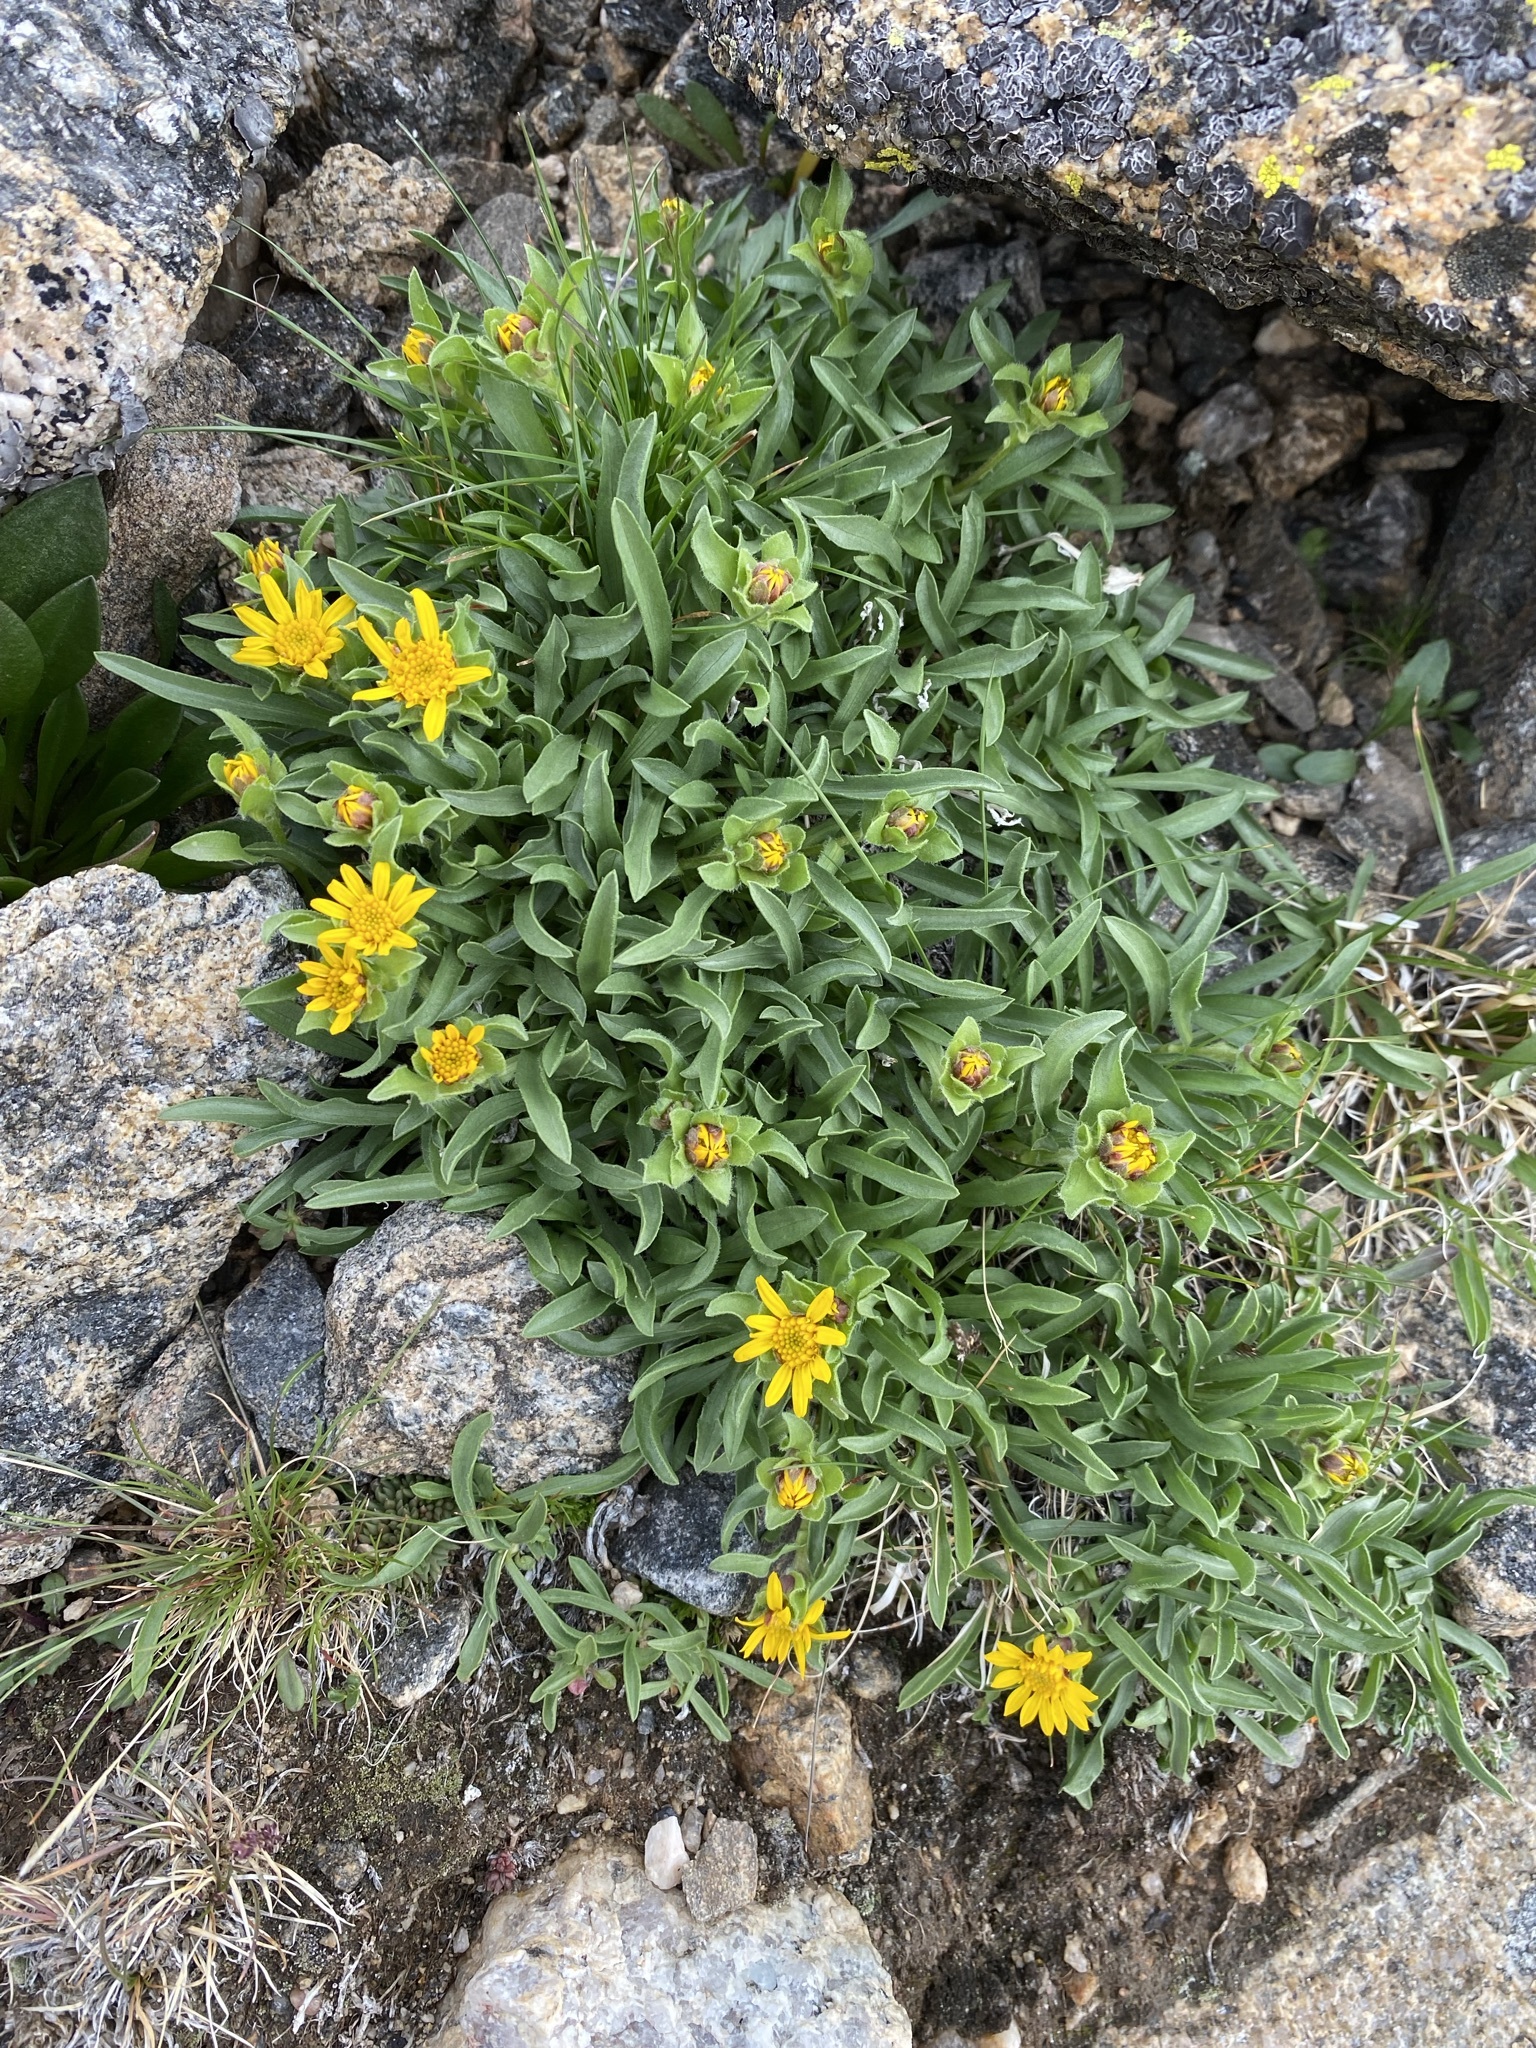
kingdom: Plantae
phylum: Tracheophyta
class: Magnoliopsida
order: Asterales
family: Asteraceae
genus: Tonestus
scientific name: Tonestus pygmaeus
